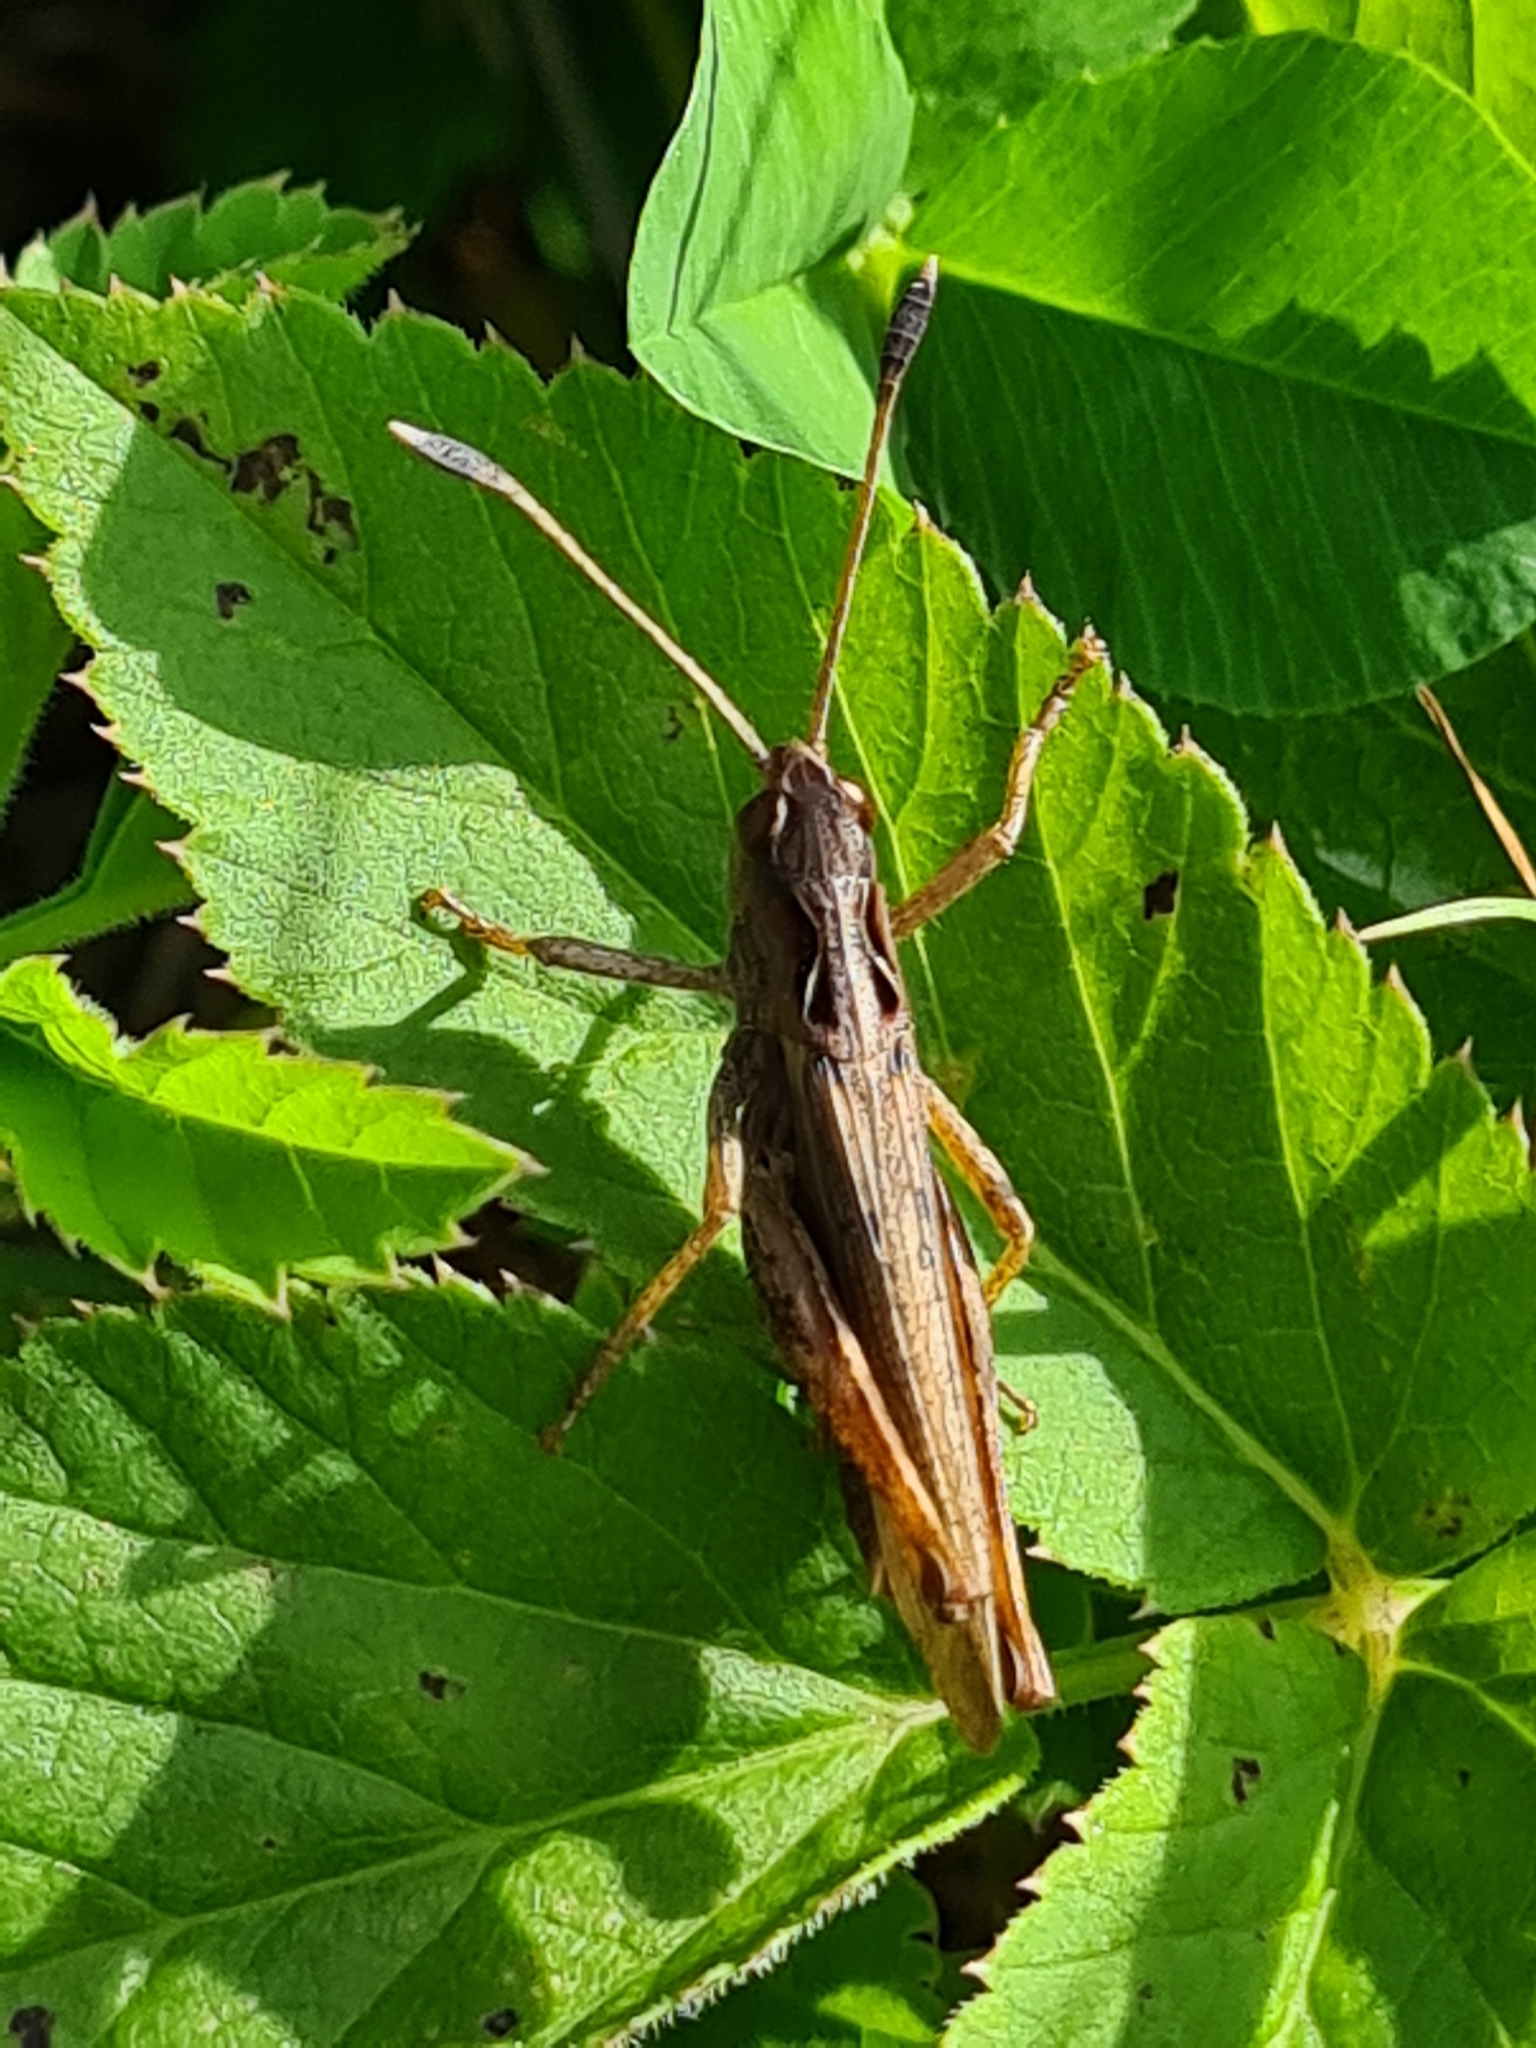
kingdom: Animalia
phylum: Arthropoda
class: Insecta
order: Orthoptera
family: Acrididae
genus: Gomphocerippus
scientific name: Gomphocerippus rufus
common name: Rufous grasshopper
